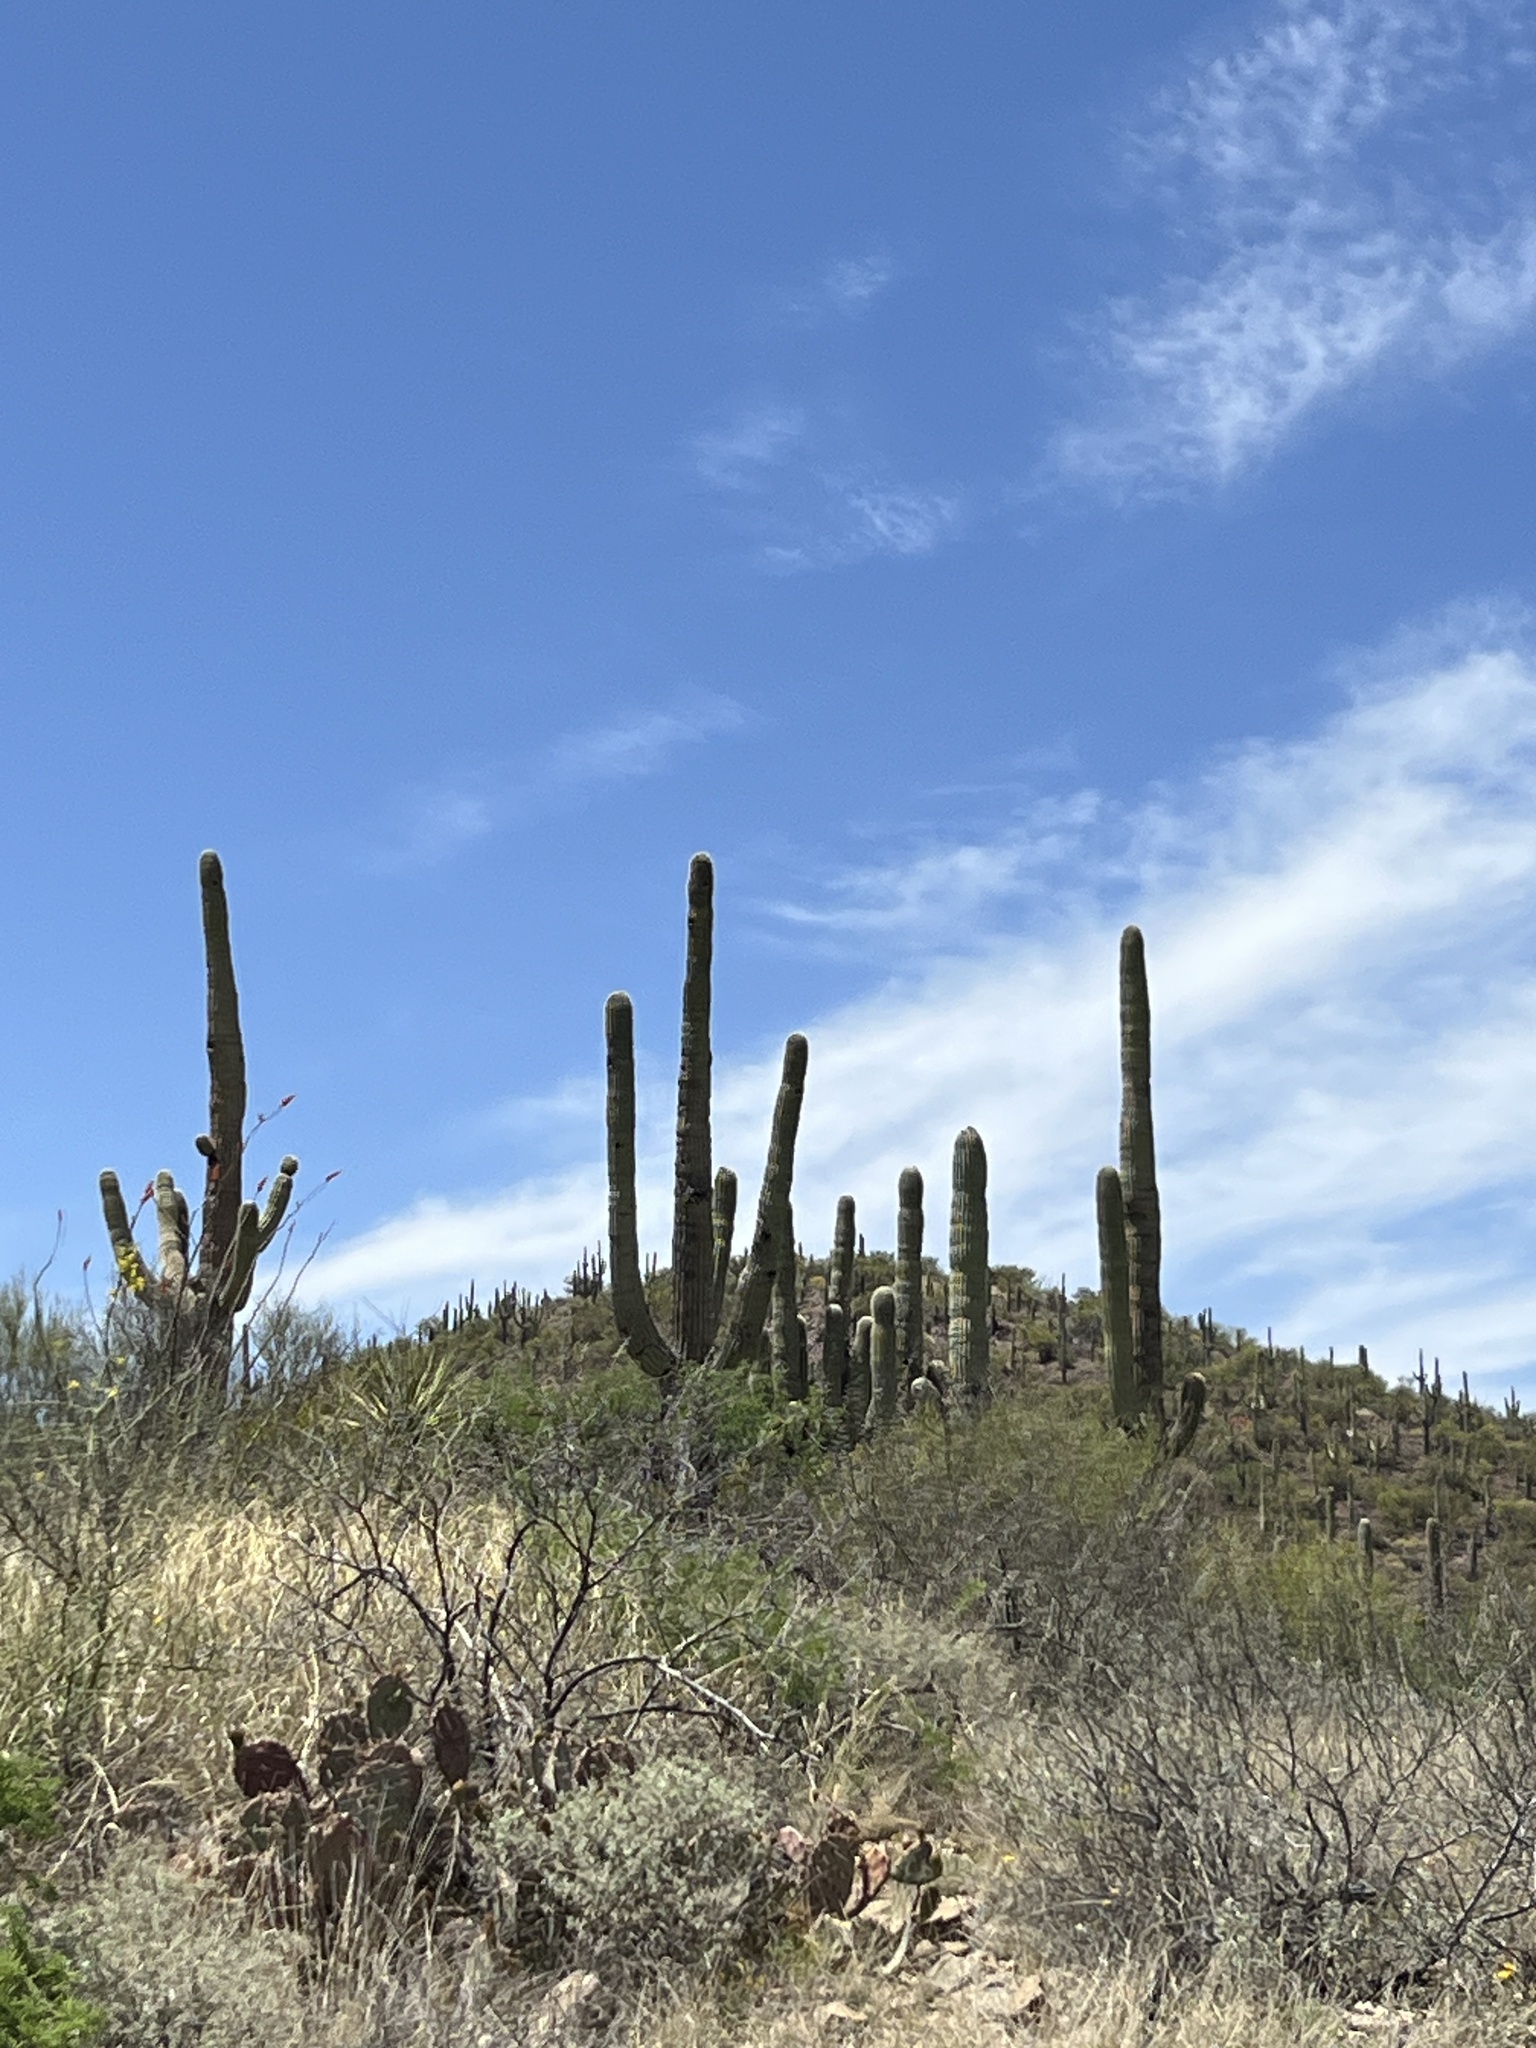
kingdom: Plantae
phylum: Tracheophyta
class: Magnoliopsida
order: Caryophyllales
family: Cactaceae
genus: Carnegiea
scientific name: Carnegiea gigantea
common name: Saguaro
